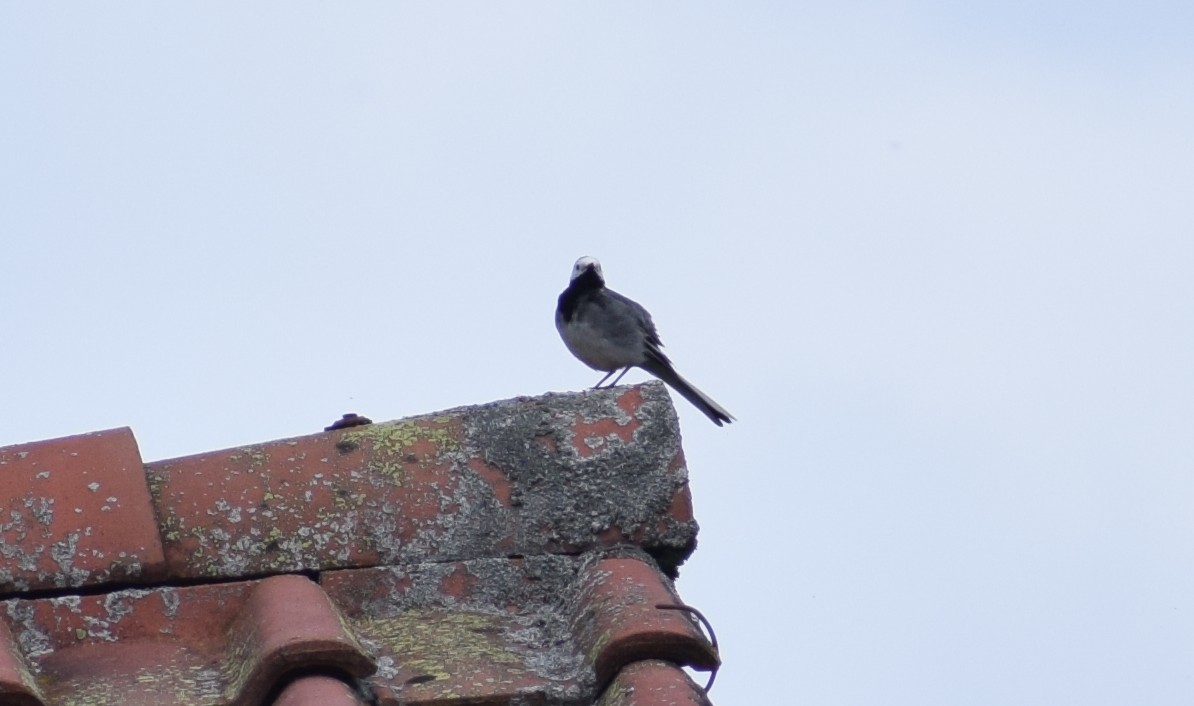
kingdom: Animalia
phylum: Chordata
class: Aves
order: Passeriformes
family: Motacillidae
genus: Motacilla
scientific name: Motacilla alba
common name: White wagtail
